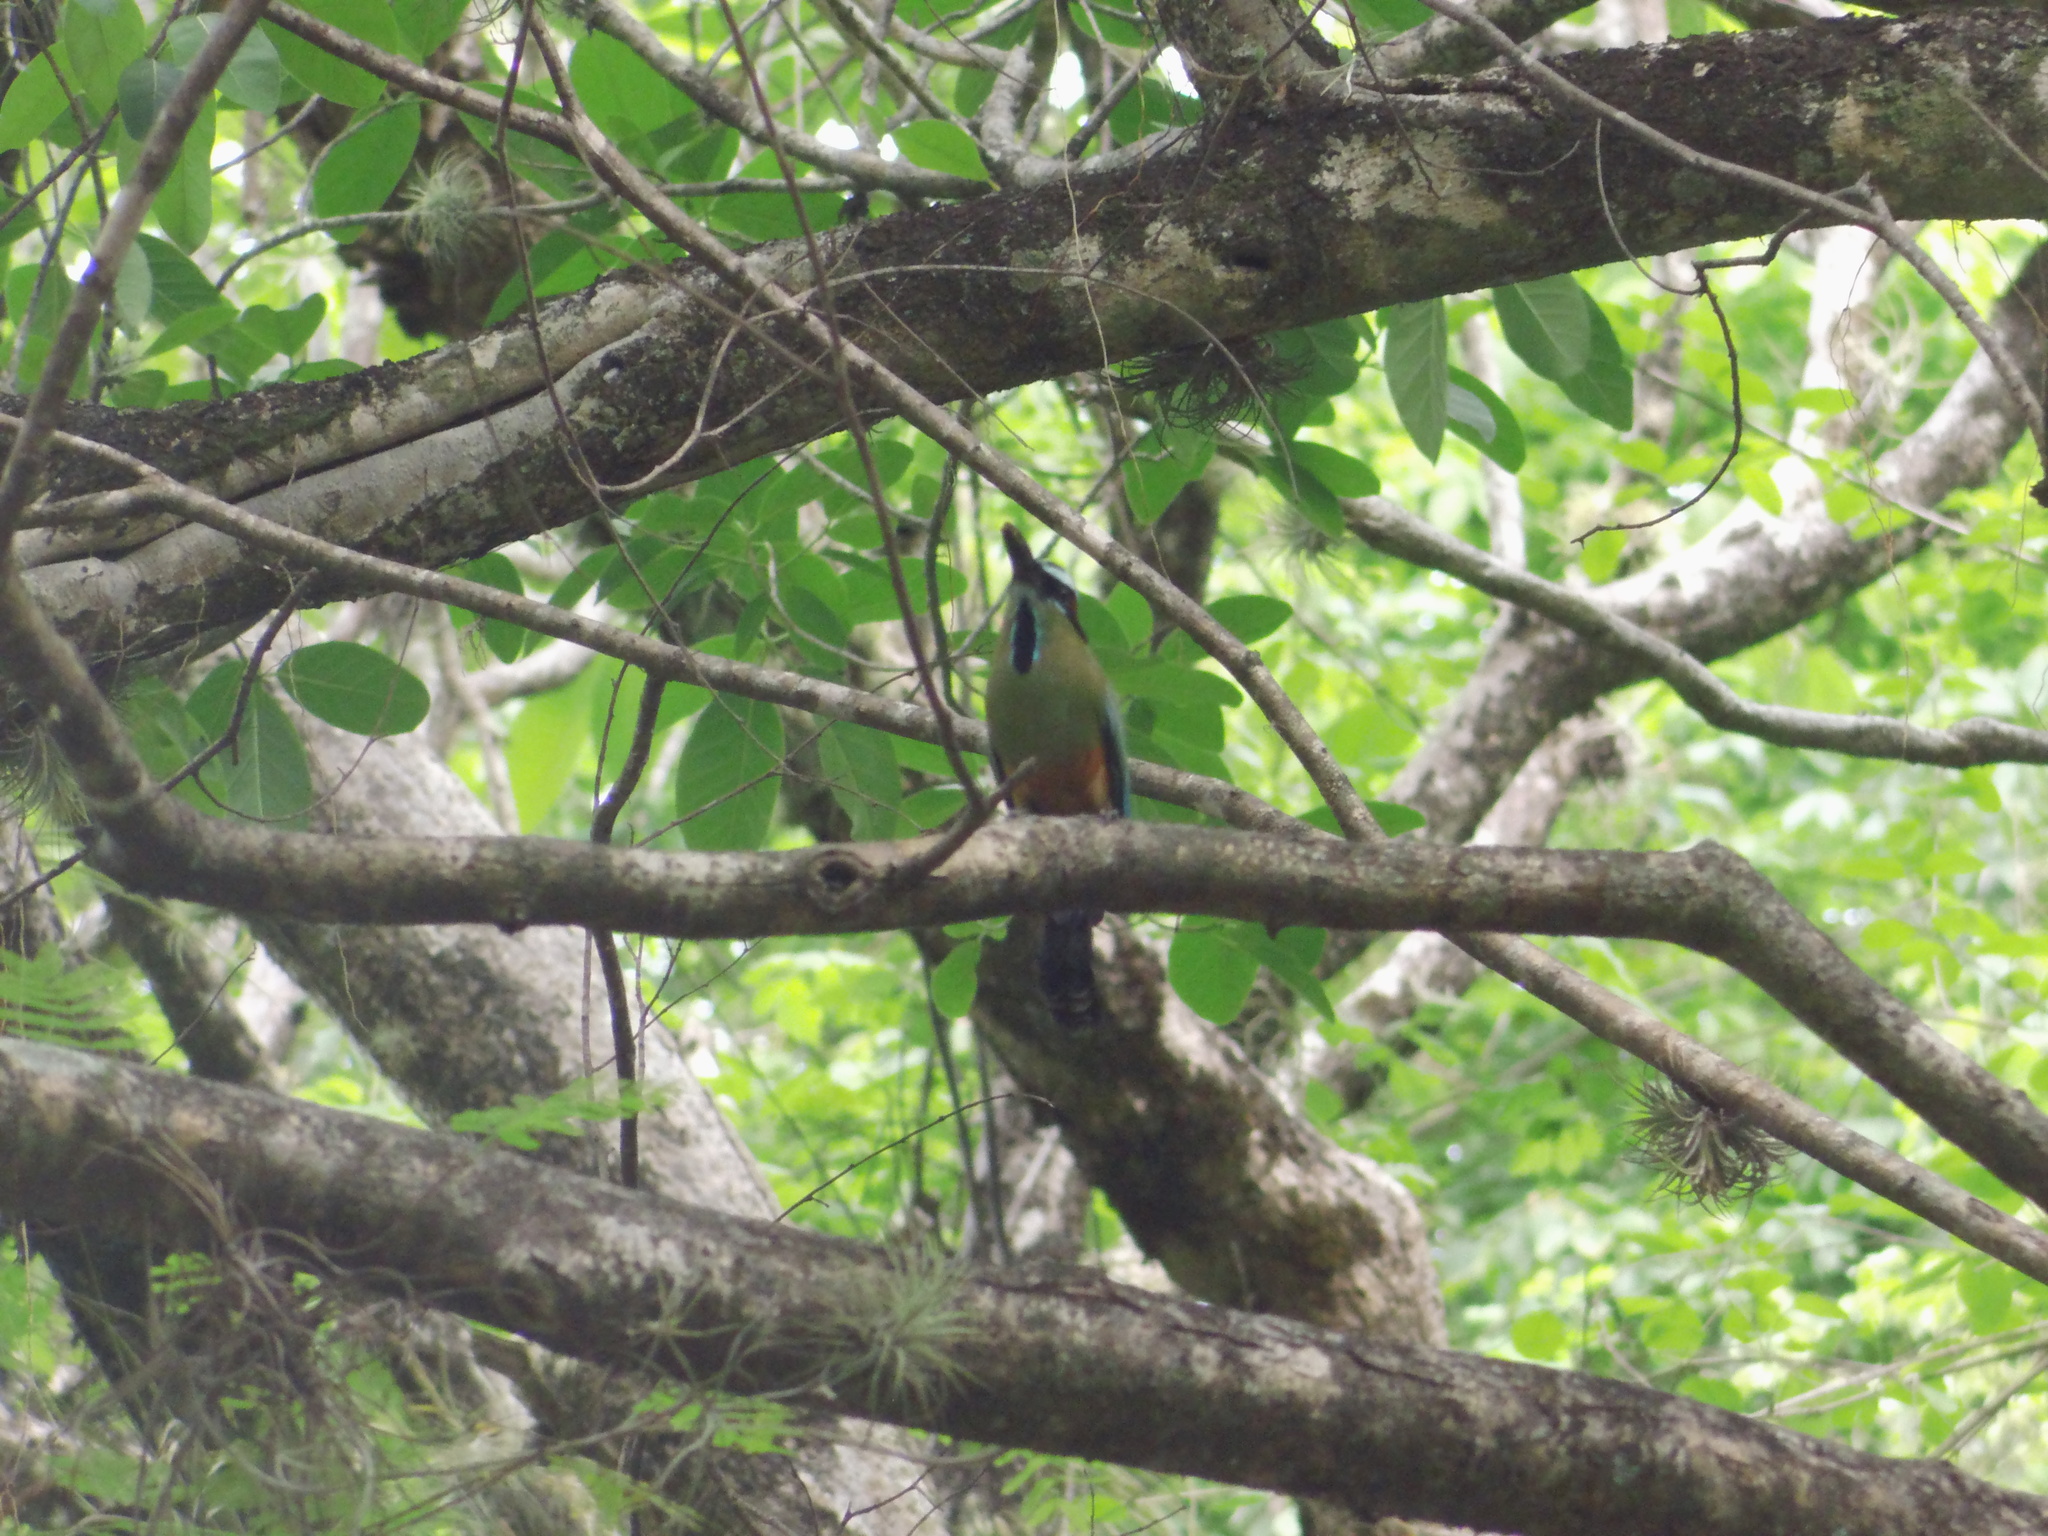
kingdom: Animalia
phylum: Chordata
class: Aves
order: Coraciiformes
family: Momotidae
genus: Eumomota
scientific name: Eumomota superciliosa
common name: Turquoise-browed motmot
